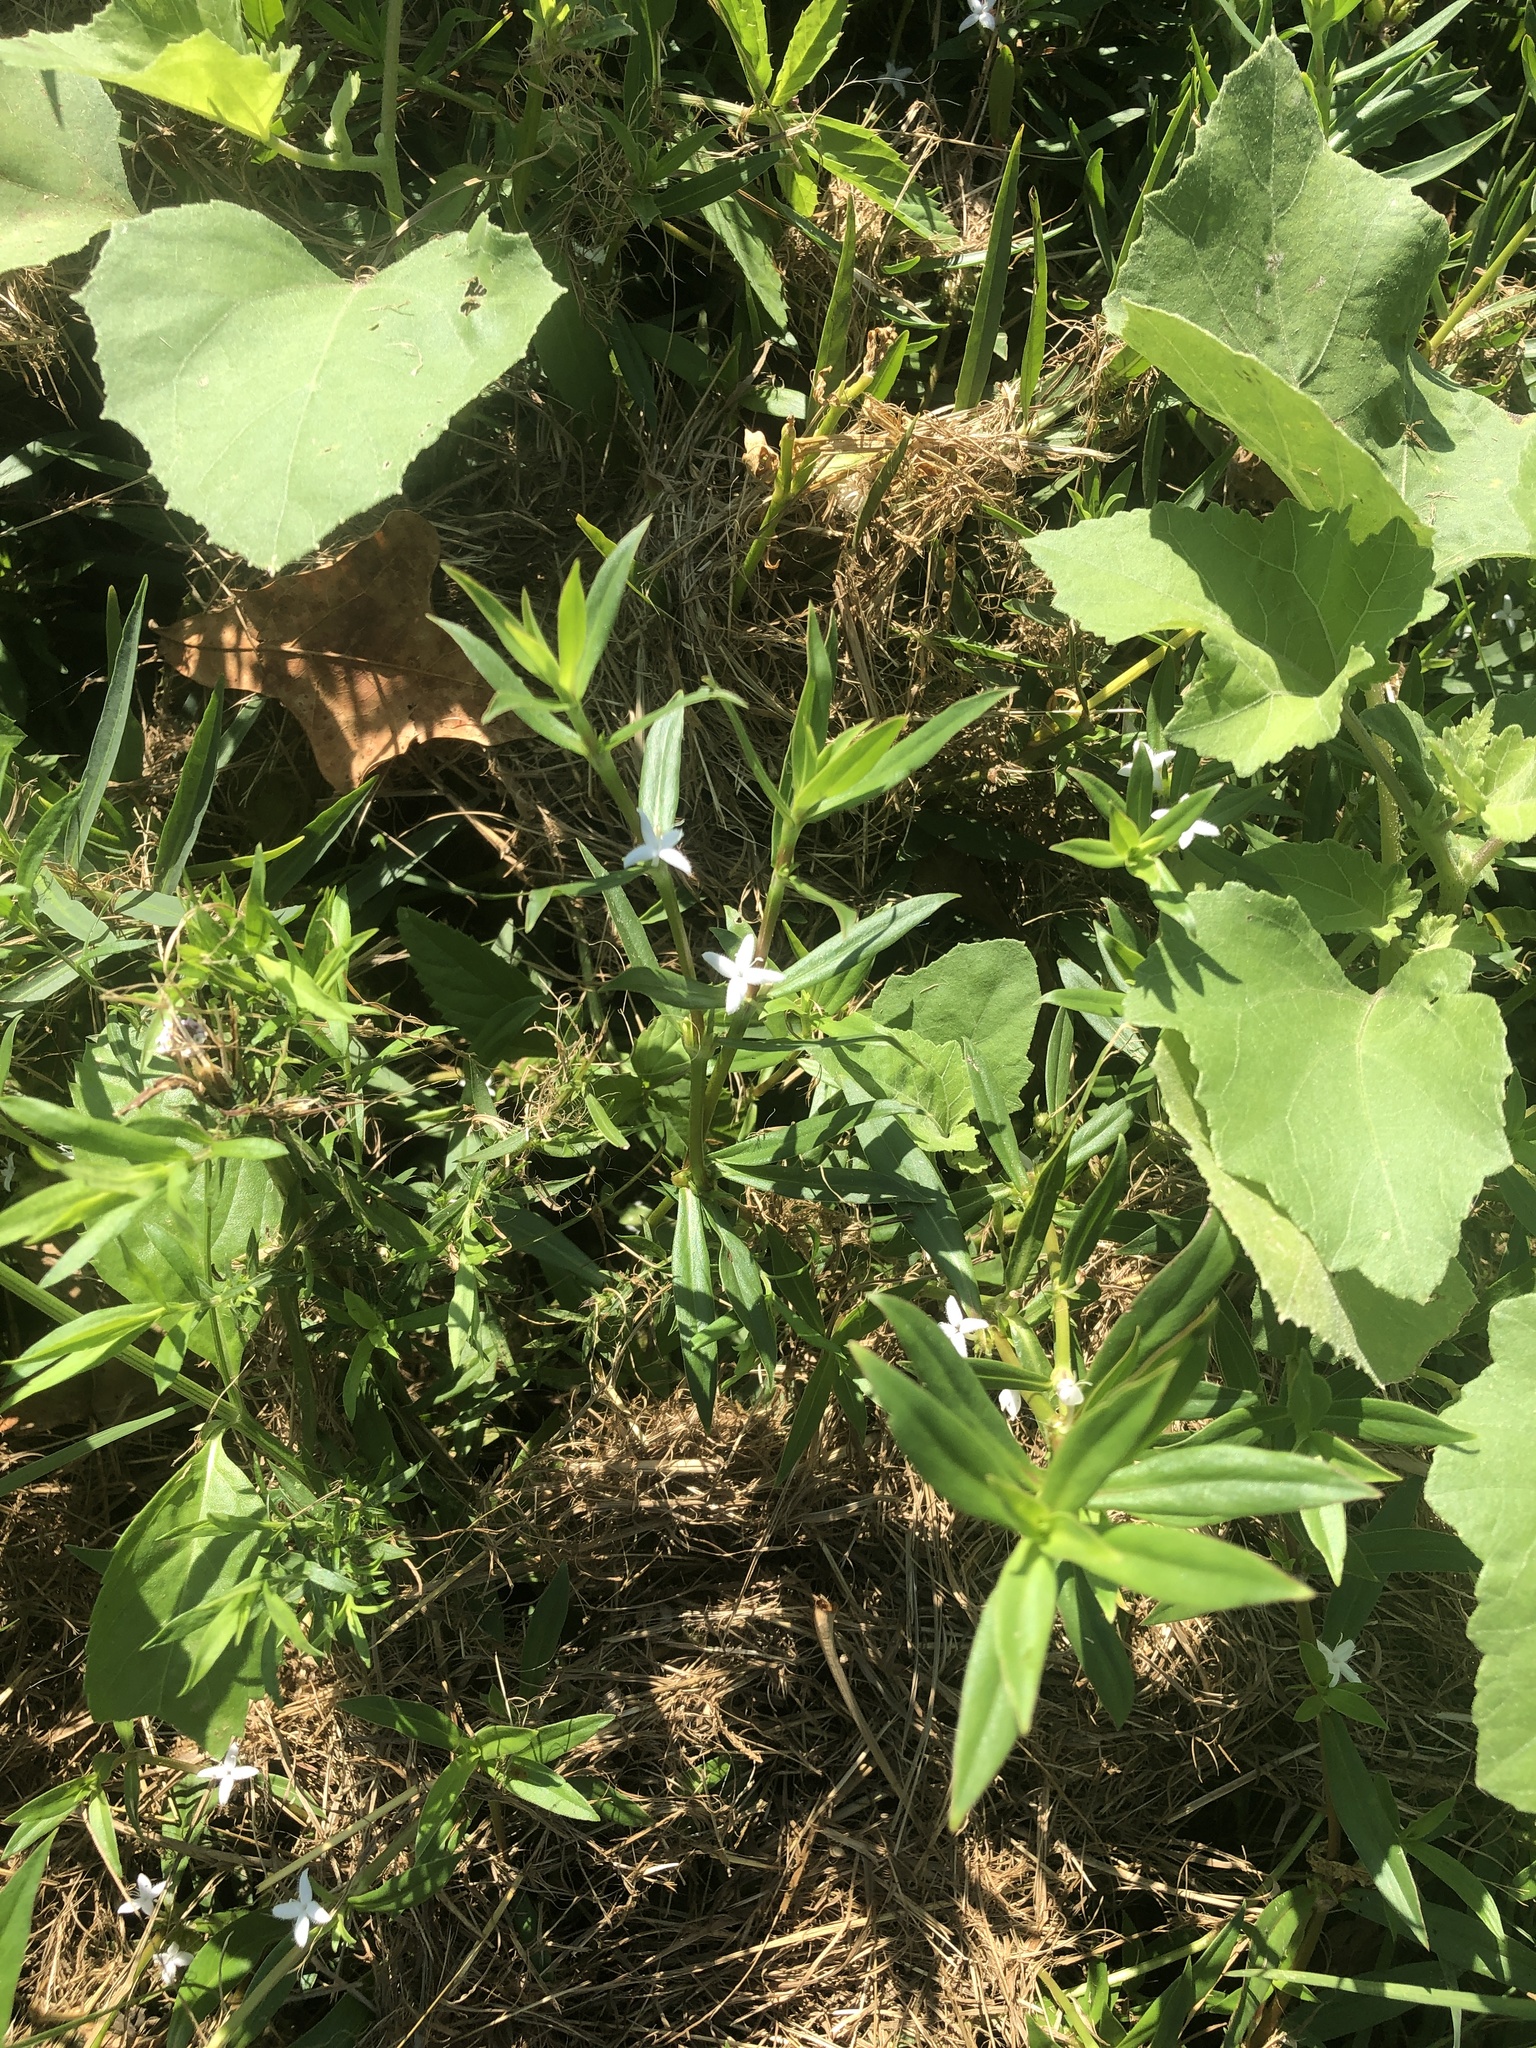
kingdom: Plantae
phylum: Tracheophyta
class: Magnoliopsida
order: Gentianales
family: Rubiaceae
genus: Diodia
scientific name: Diodia virginiana
